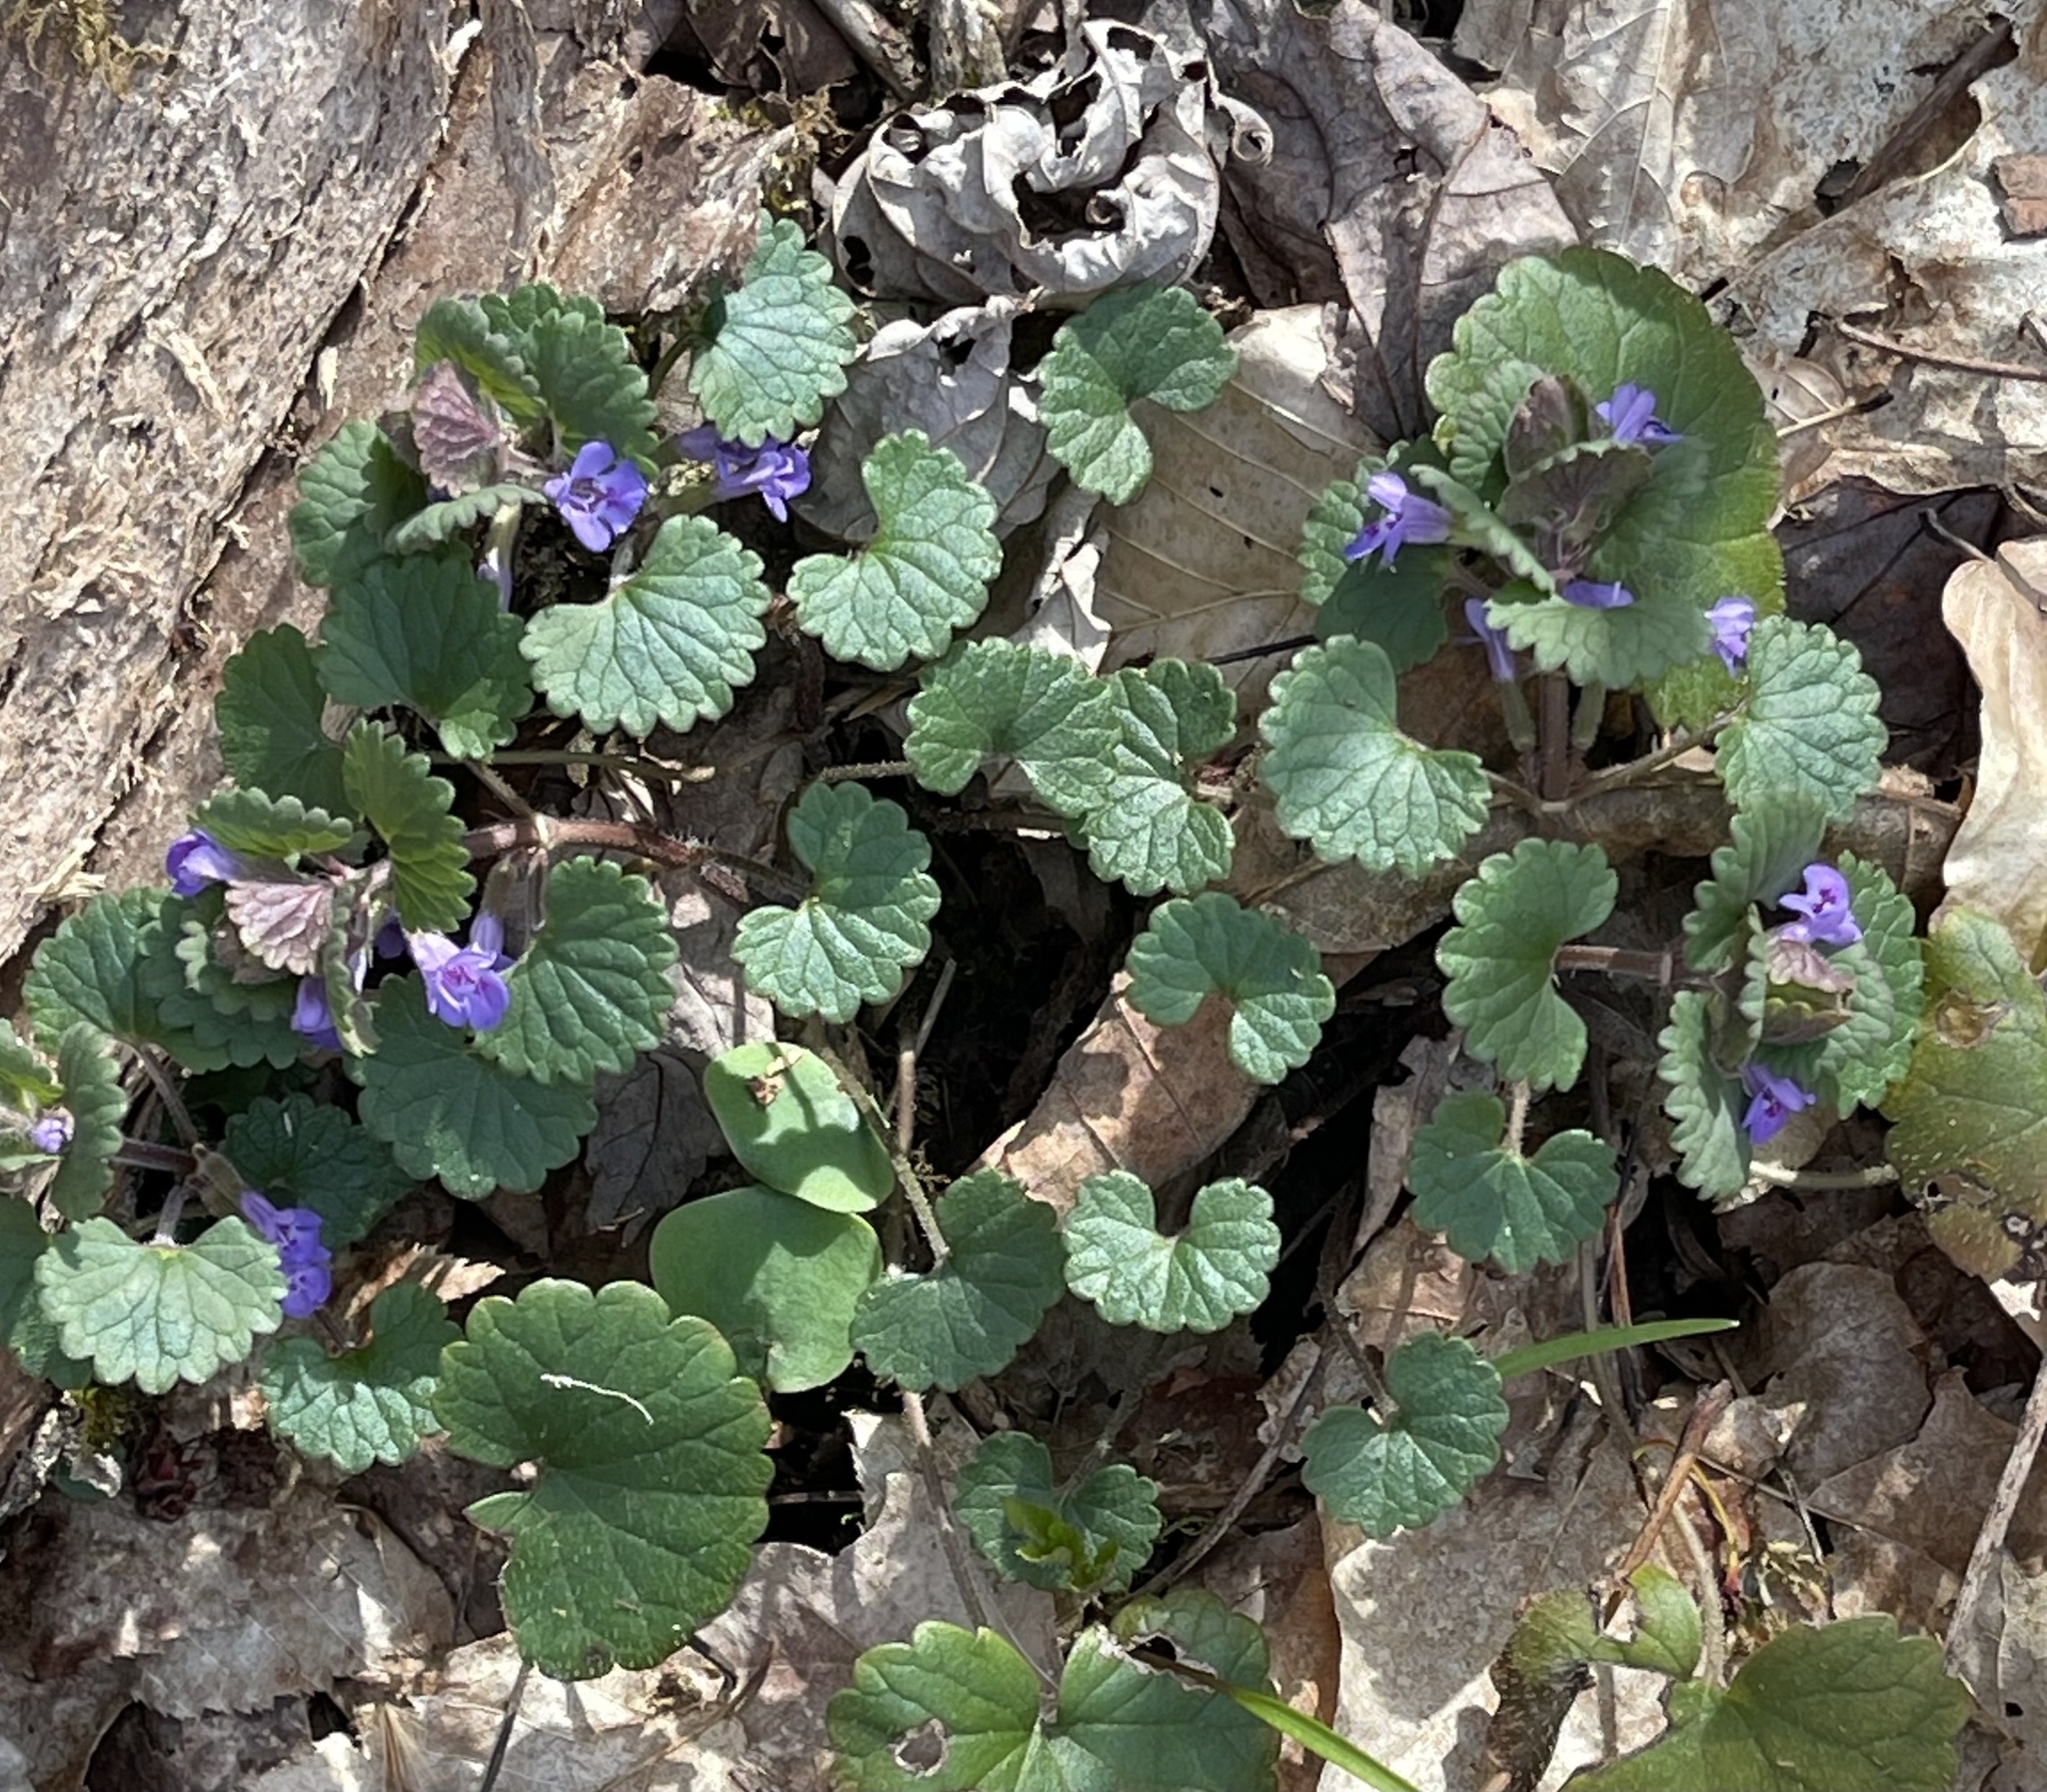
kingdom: Plantae
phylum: Tracheophyta
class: Magnoliopsida
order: Lamiales
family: Lamiaceae
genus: Glechoma
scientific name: Glechoma hederacea
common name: Ground ivy
